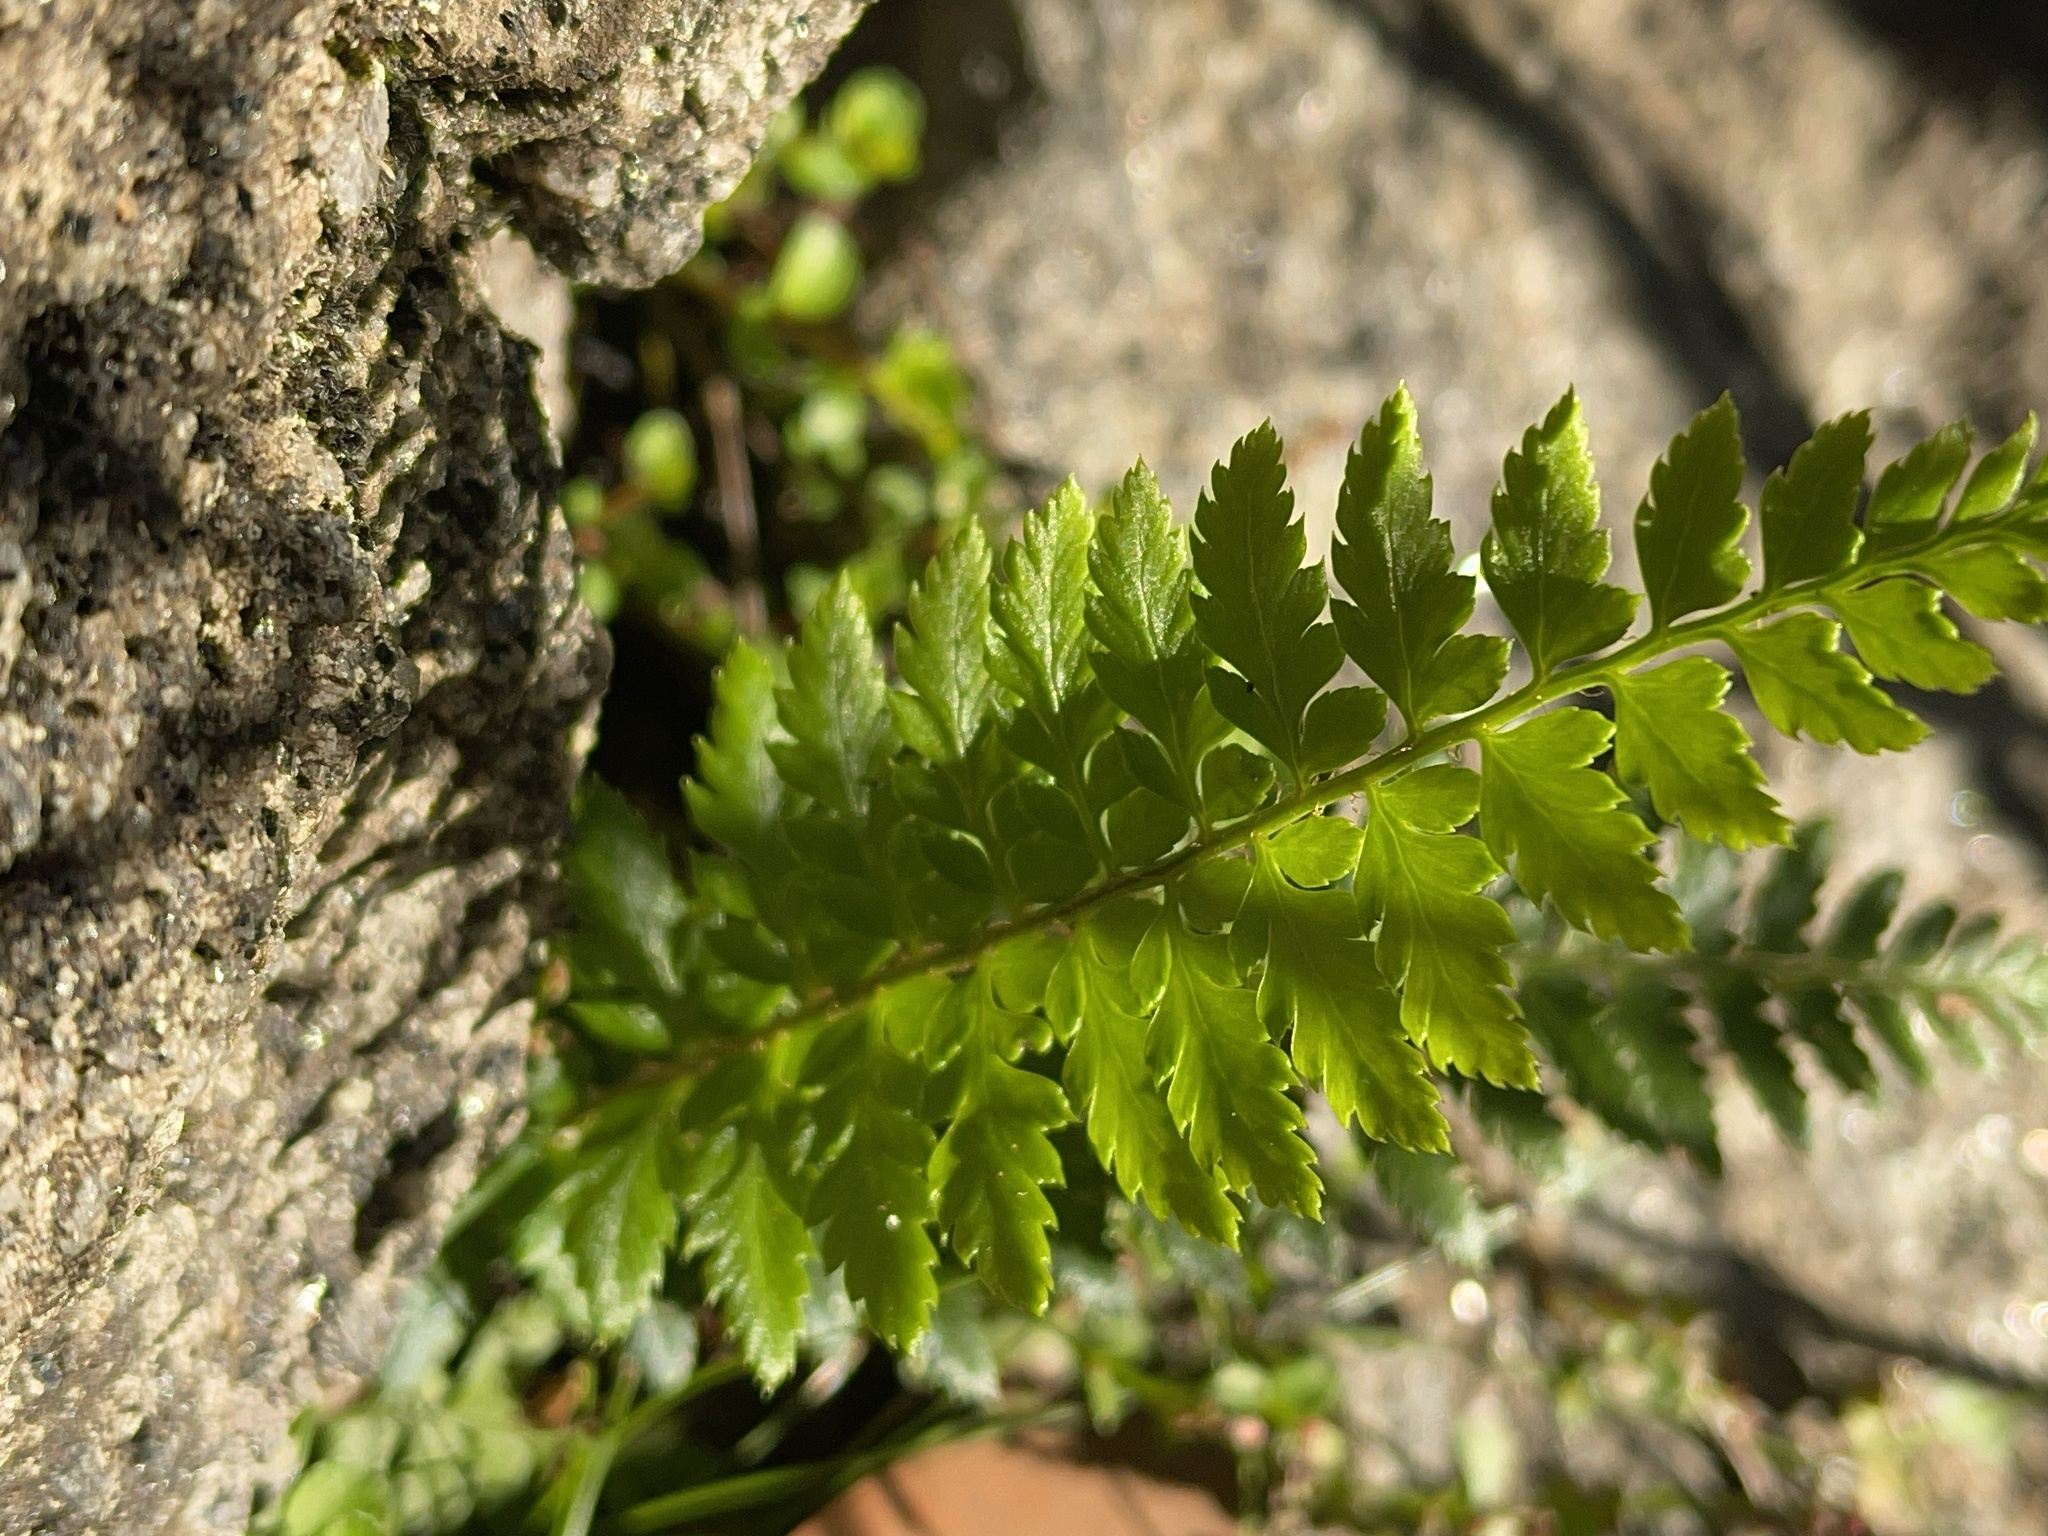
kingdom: Plantae
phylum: Tracheophyta
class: Polypodiopsida
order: Polypodiales
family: Dryopteridaceae
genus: Polystichum
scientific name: Polystichum proliferum
